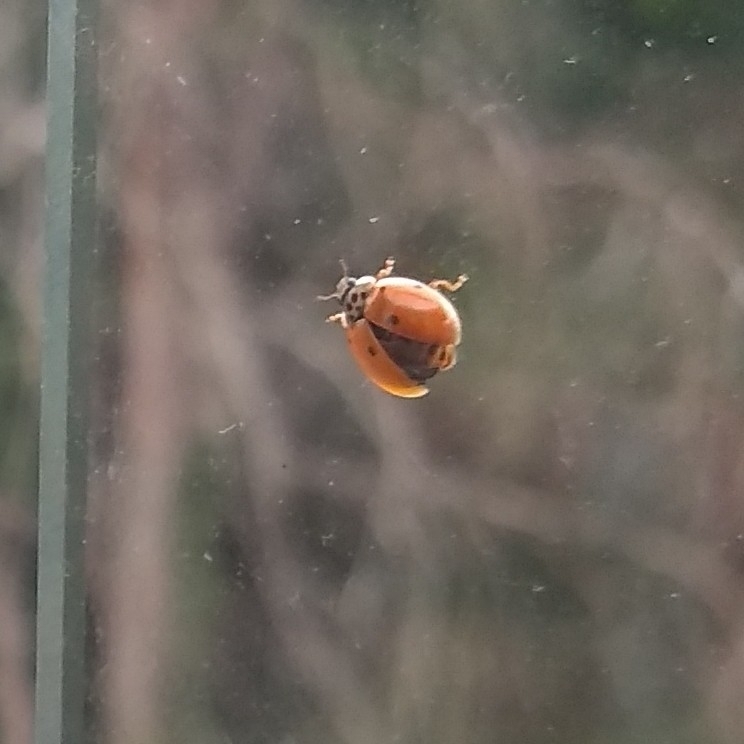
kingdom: Animalia
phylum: Arthropoda
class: Insecta
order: Coleoptera
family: Coccinellidae
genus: Adalia
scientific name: Adalia decempunctata
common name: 10-spot ladybird
